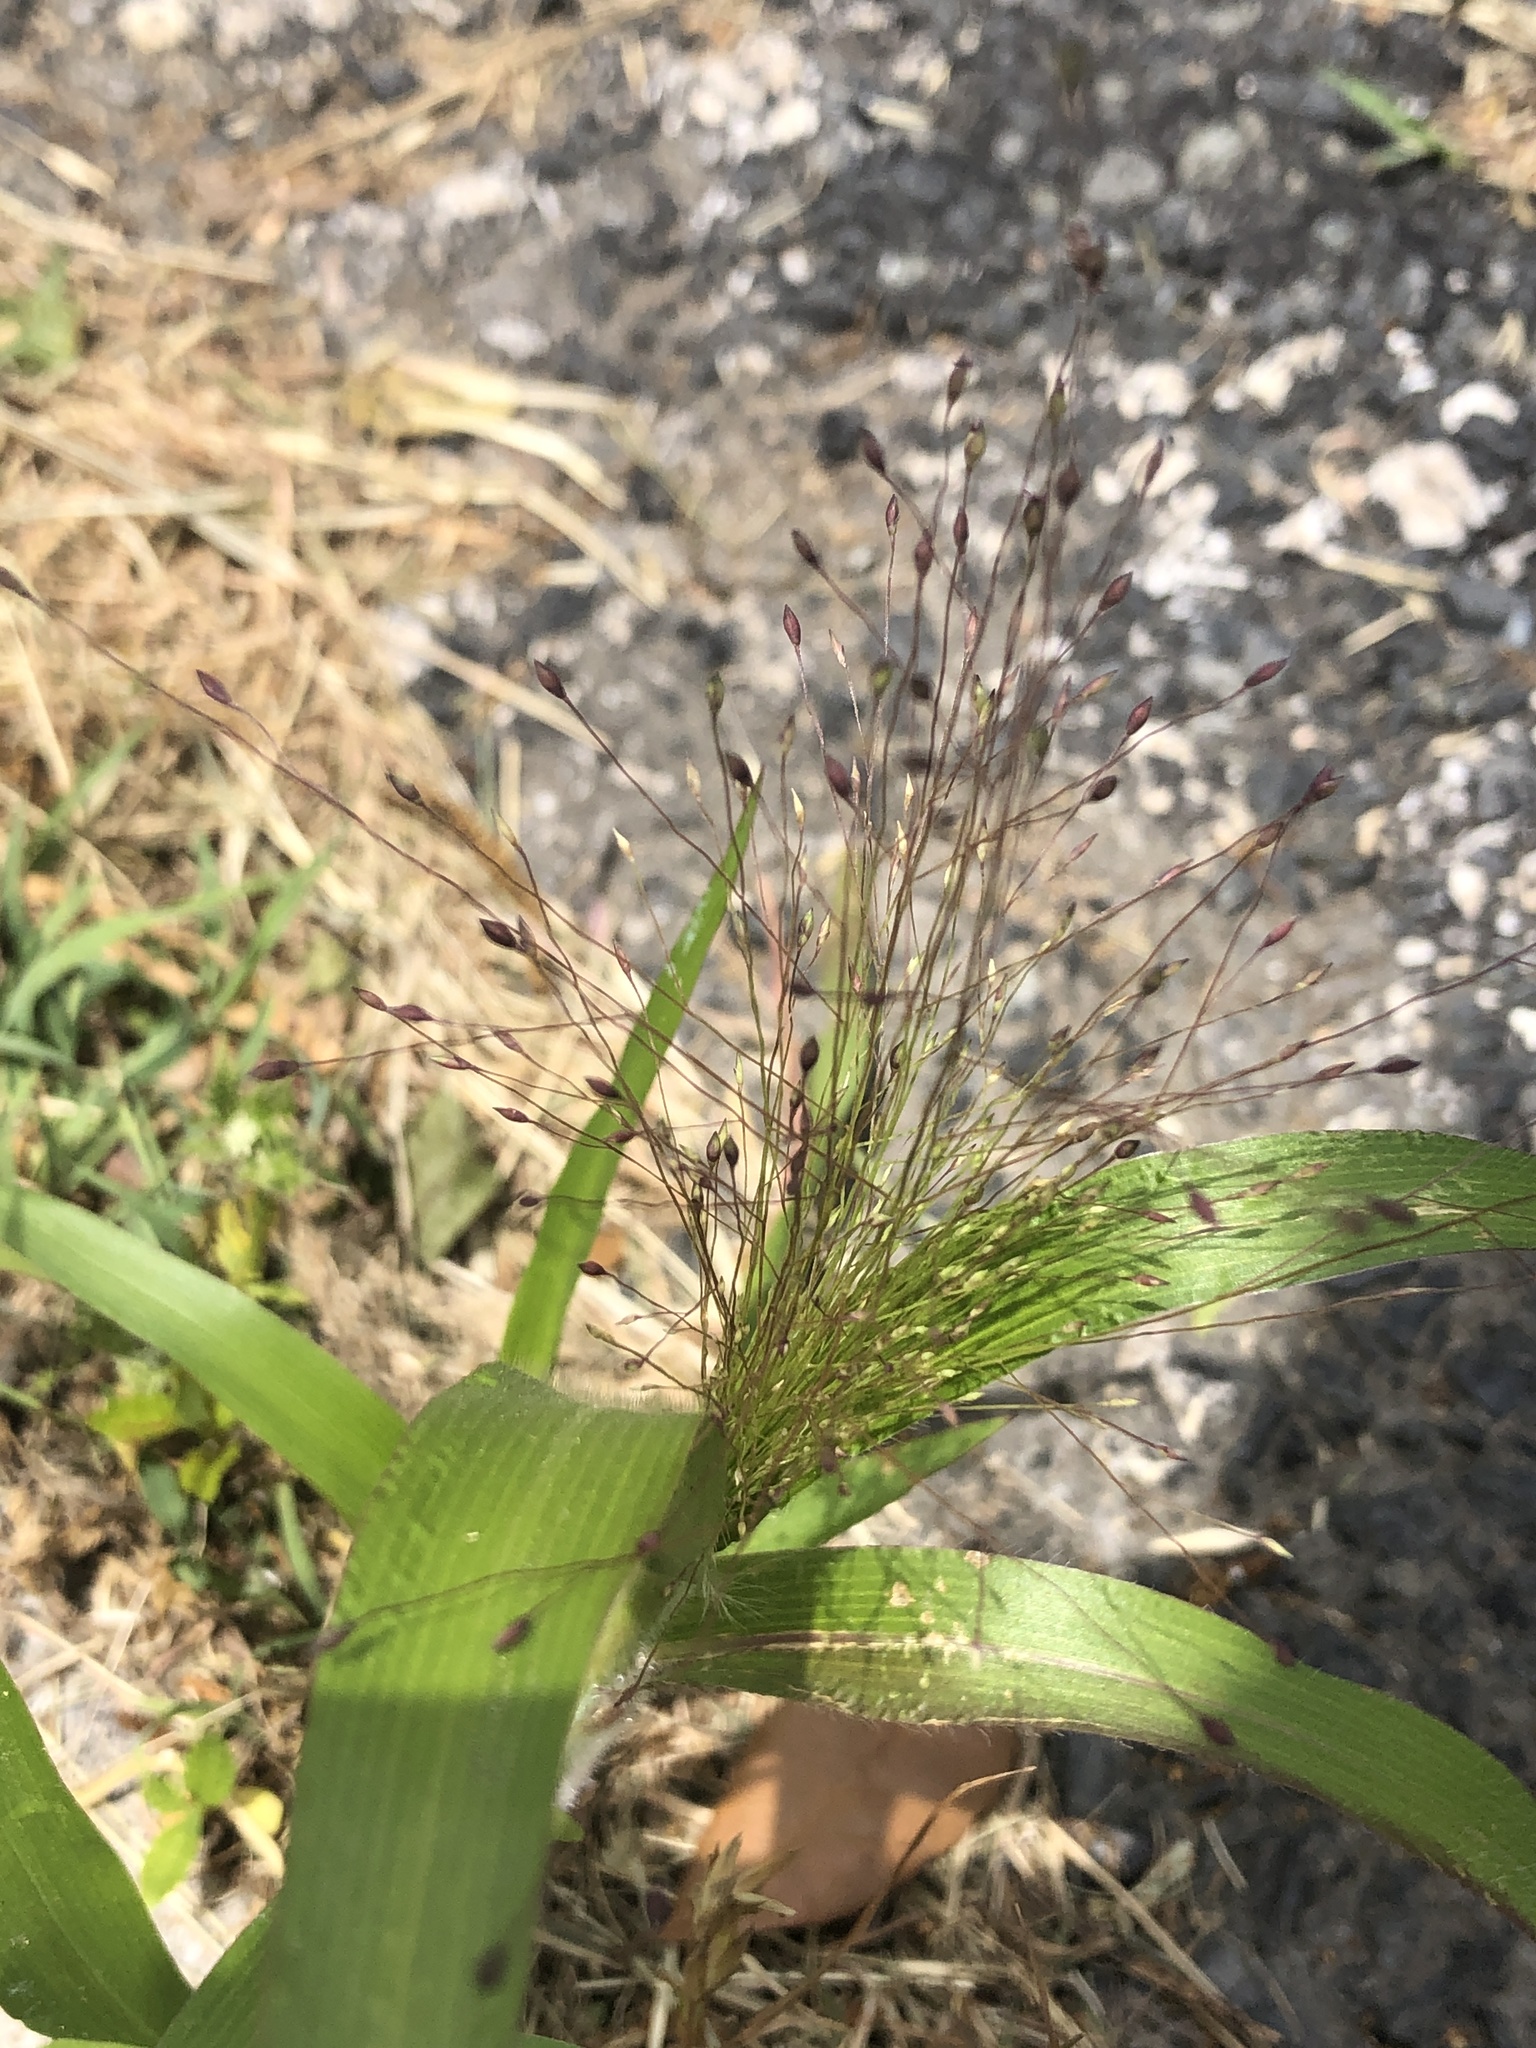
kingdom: Plantae
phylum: Tracheophyta
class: Liliopsida
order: Poales
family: Poaceae
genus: Panicum
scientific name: Panicum capillare
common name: Witch-grass
